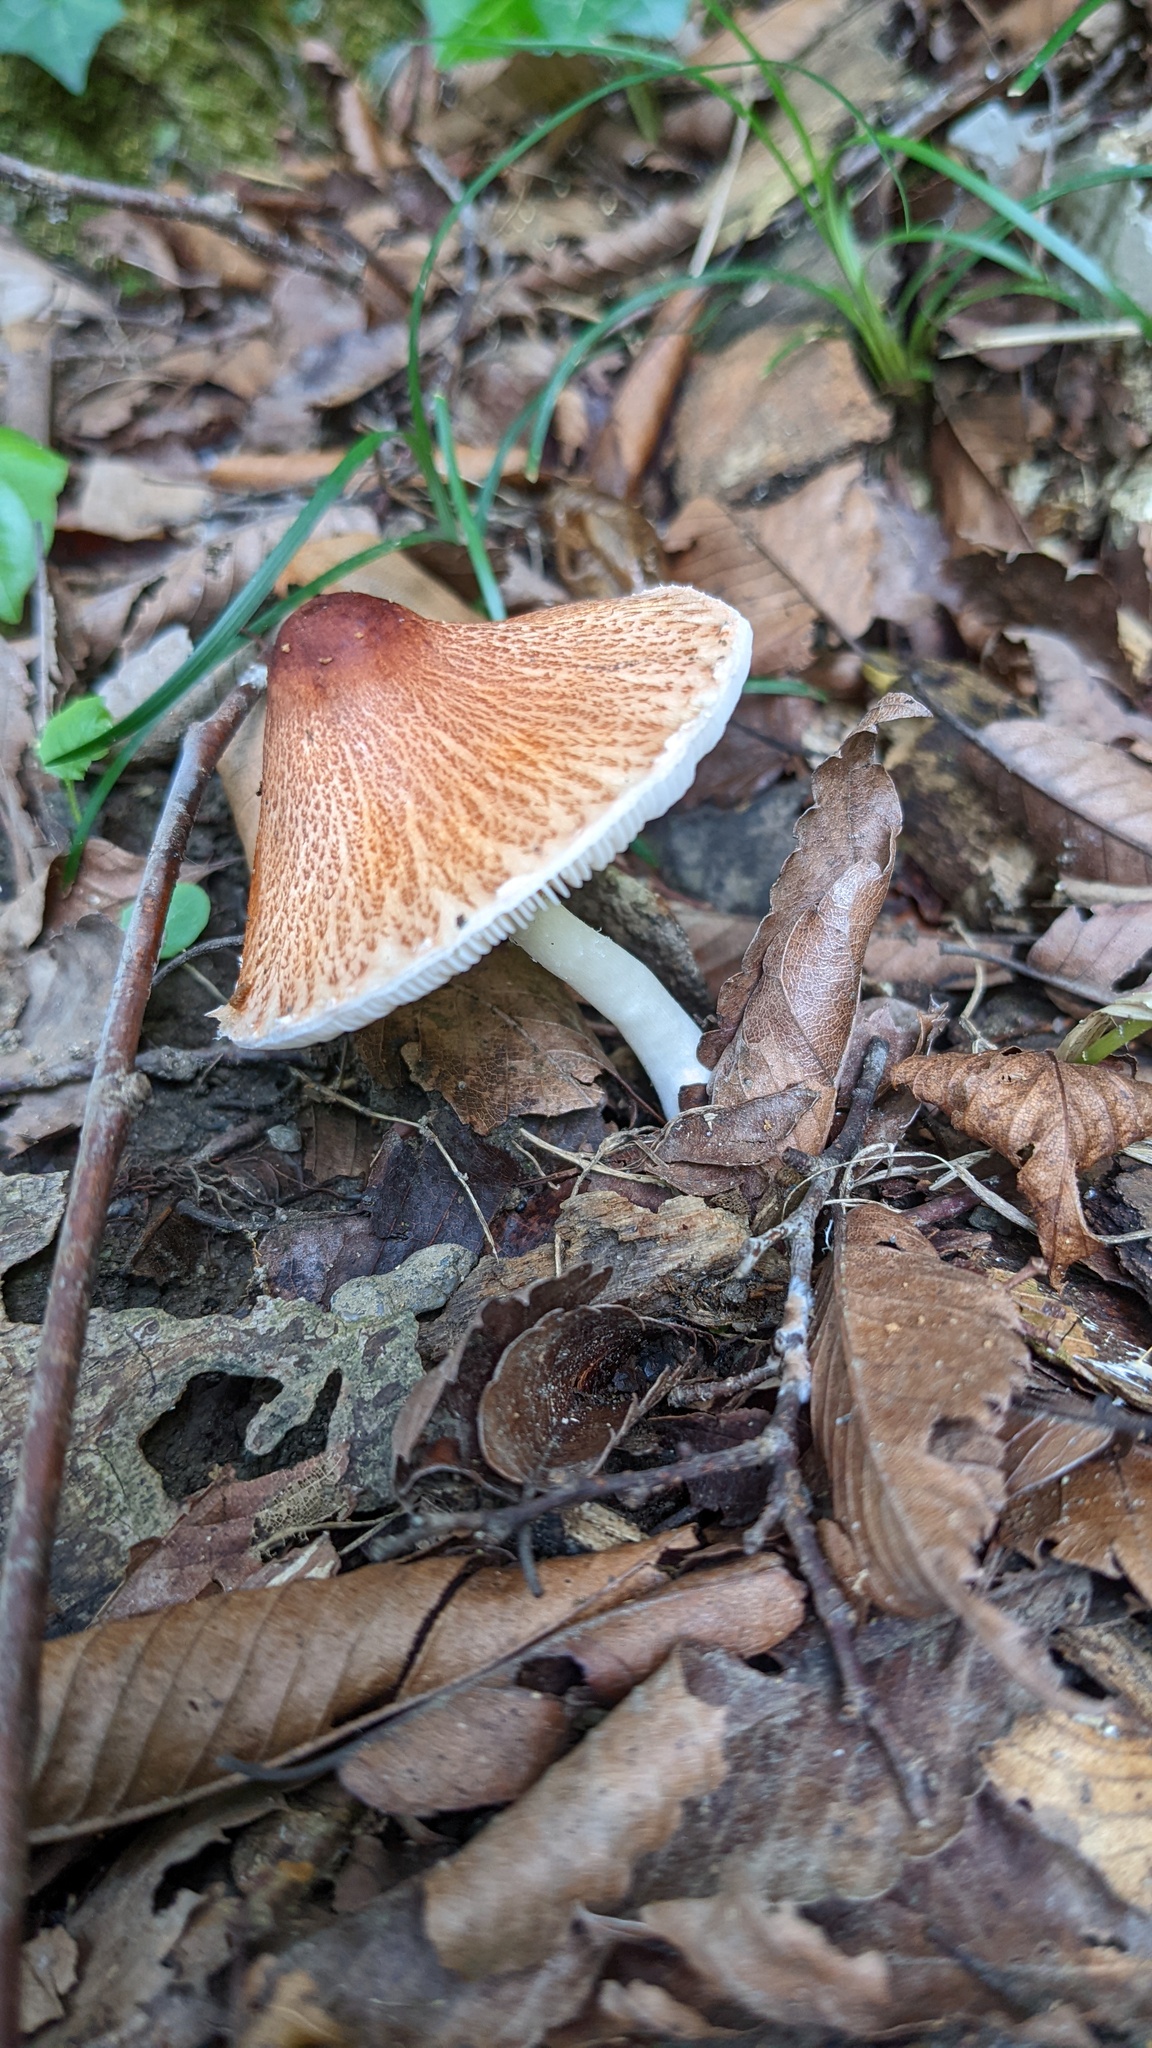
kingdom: Fungi
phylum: Basidiomycota
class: Agaricomycetes
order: Agaricales
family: Agaricaceae
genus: Leucoagaricus
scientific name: Leucoagaricus rubrotinctus
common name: Ruby dapperling
